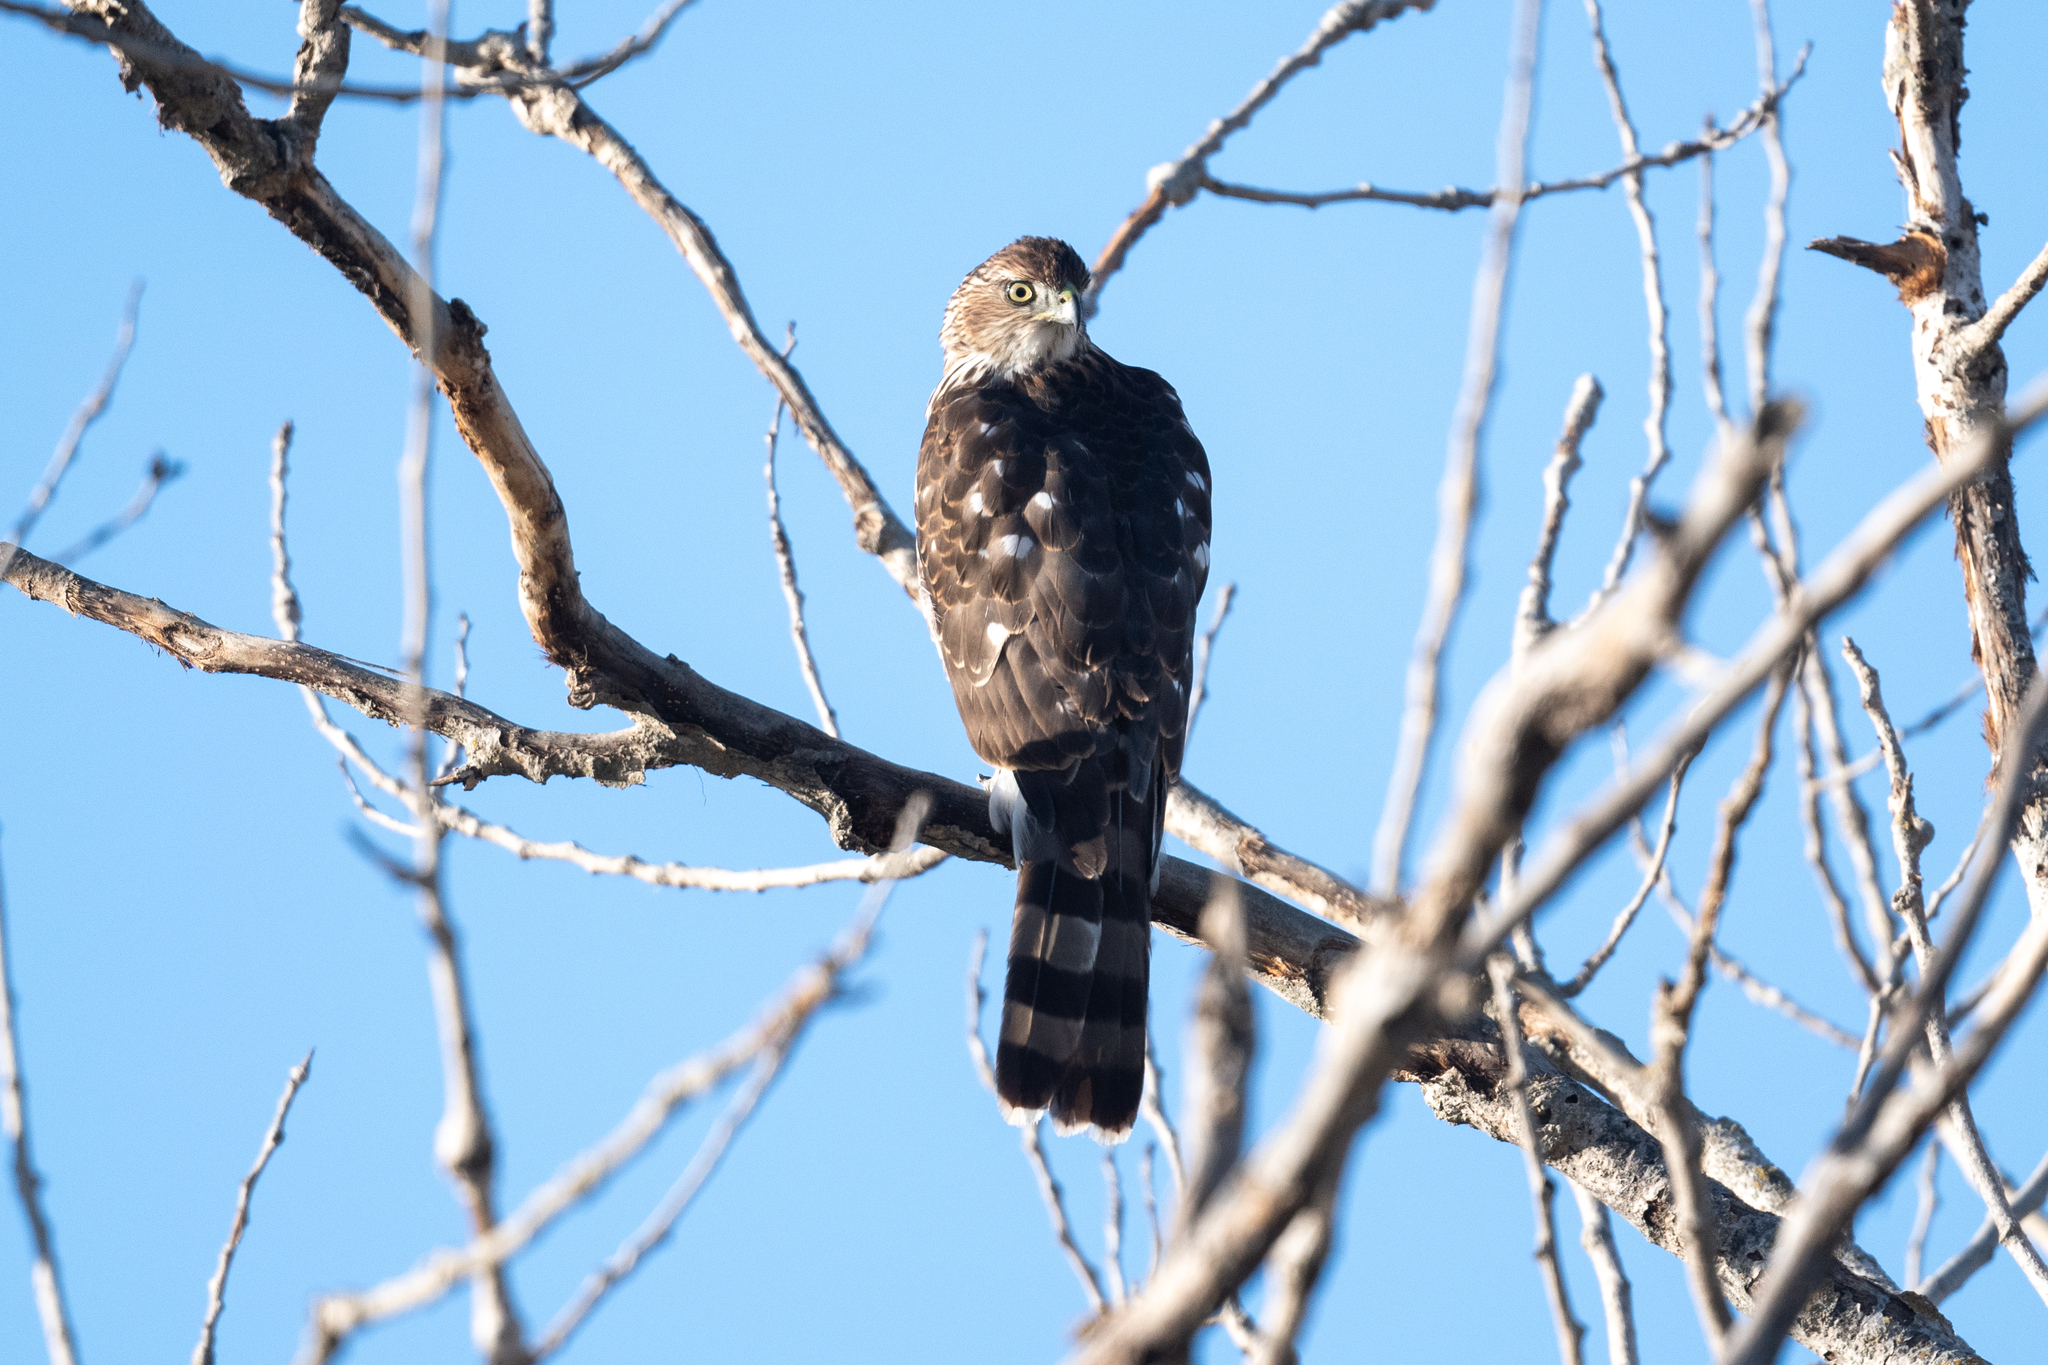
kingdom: Animalia
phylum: Chordata
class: Aves
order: Accipitriformes
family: Accipitridae
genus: Accipiter
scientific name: Accipiter cooperii
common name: Cooper's hawk
